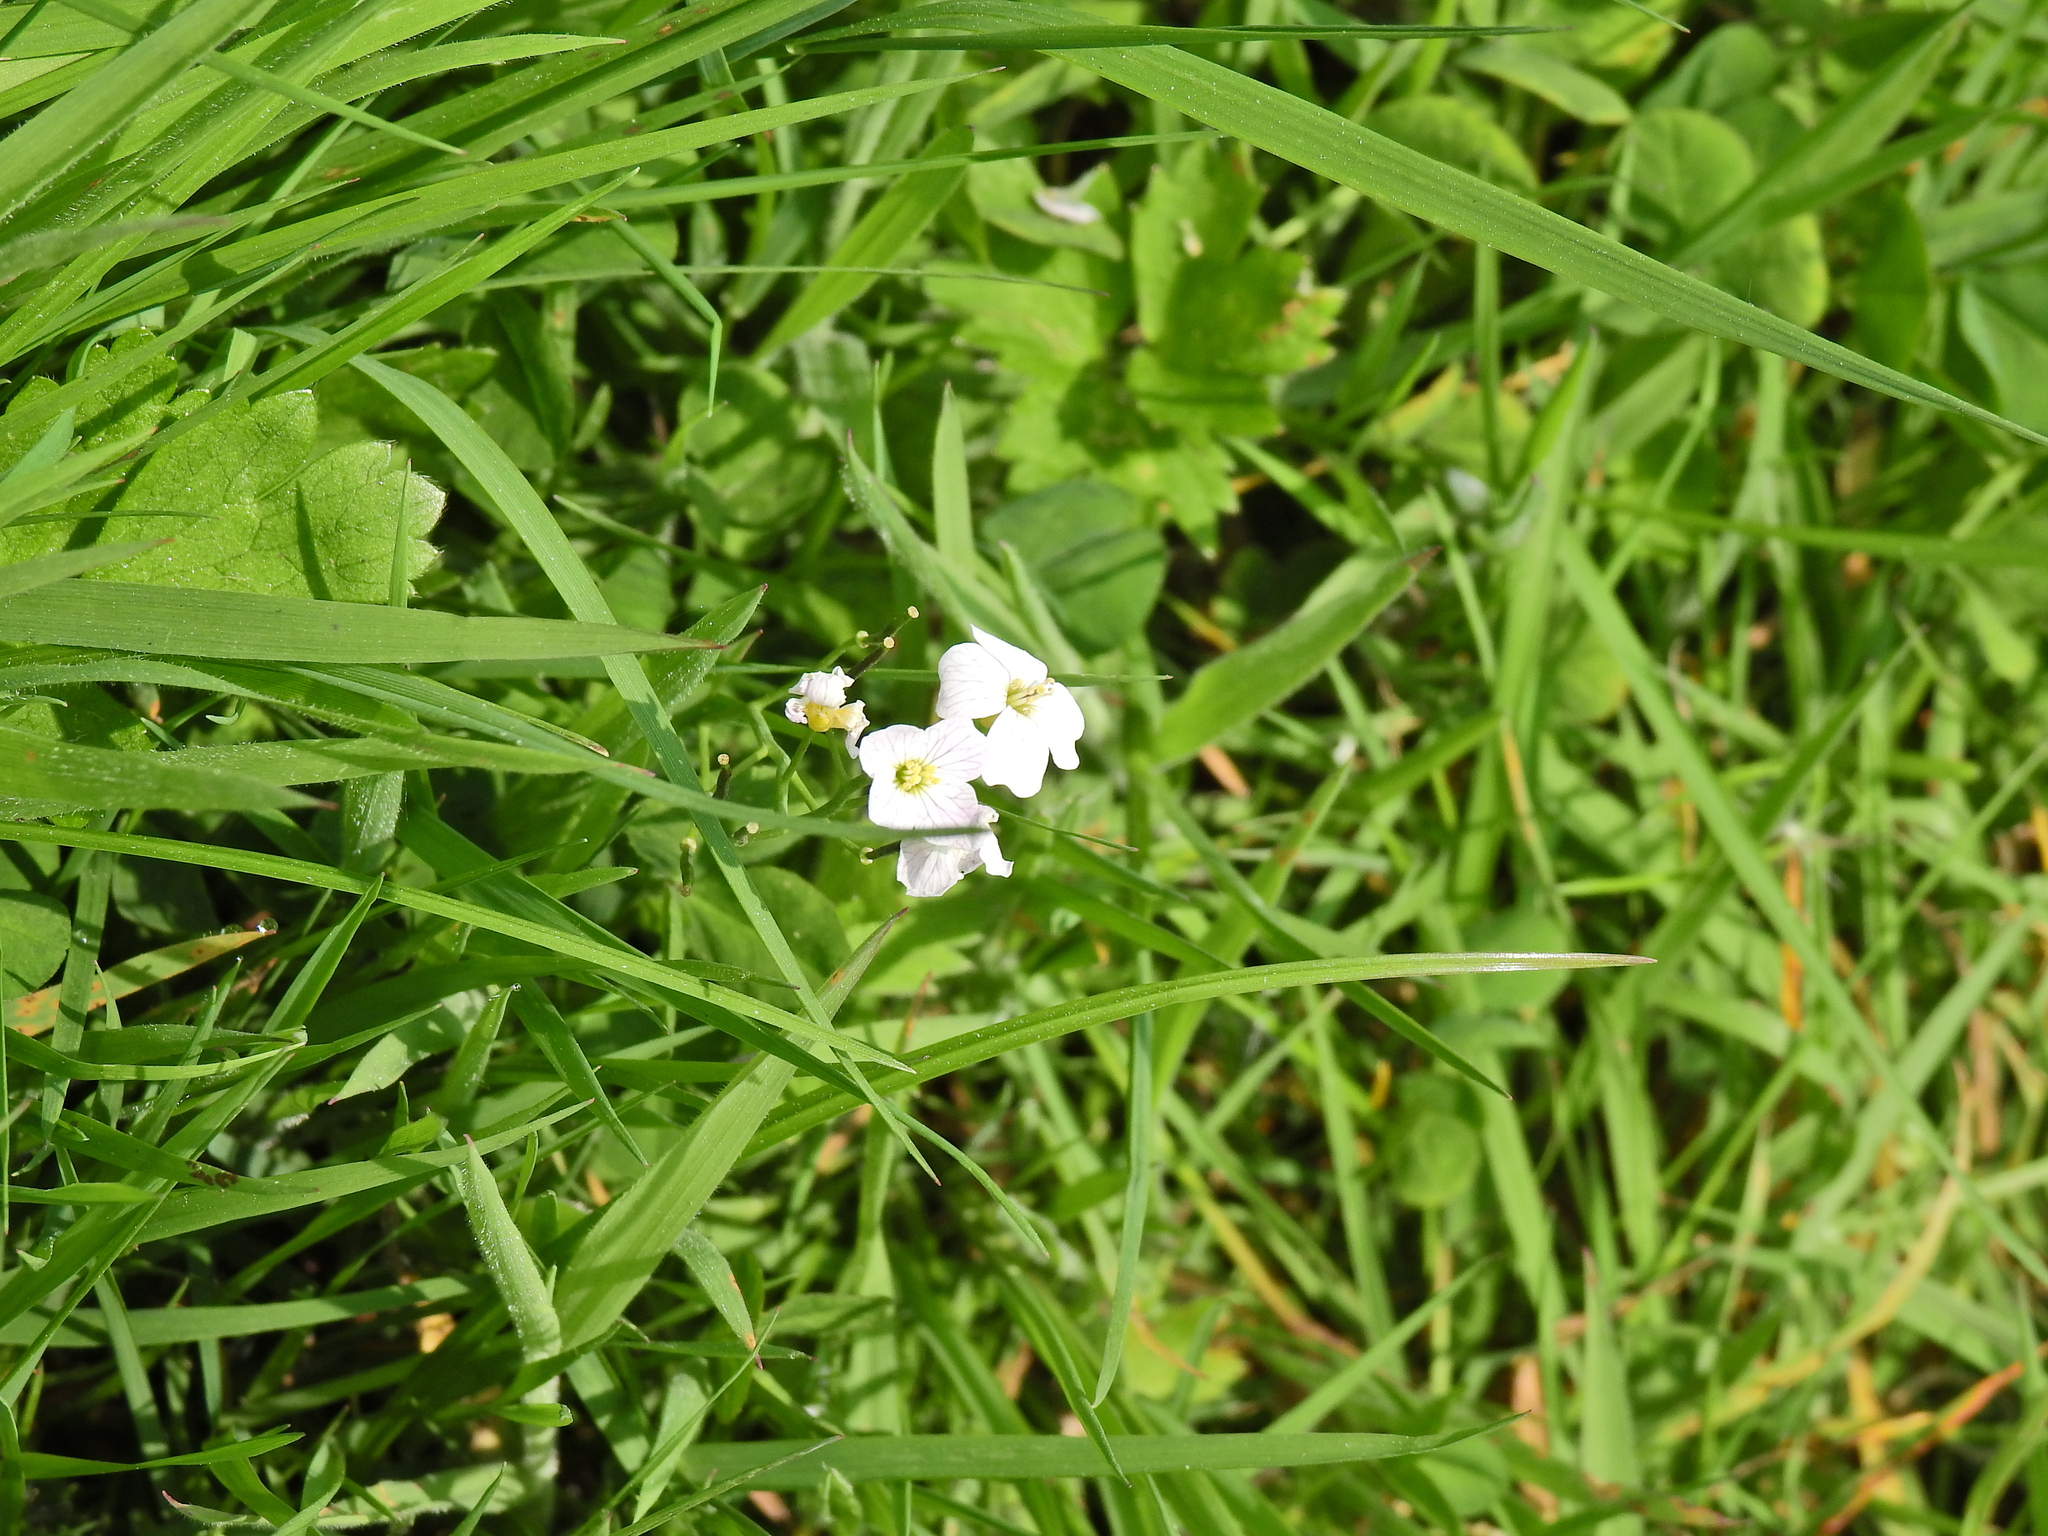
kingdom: Plantae
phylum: Tracheophyta
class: Magnoliopsida
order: Brassicales
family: Brassicaceae
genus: Cardamine
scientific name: Cardamine pratensis
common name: Cuckoo flower
